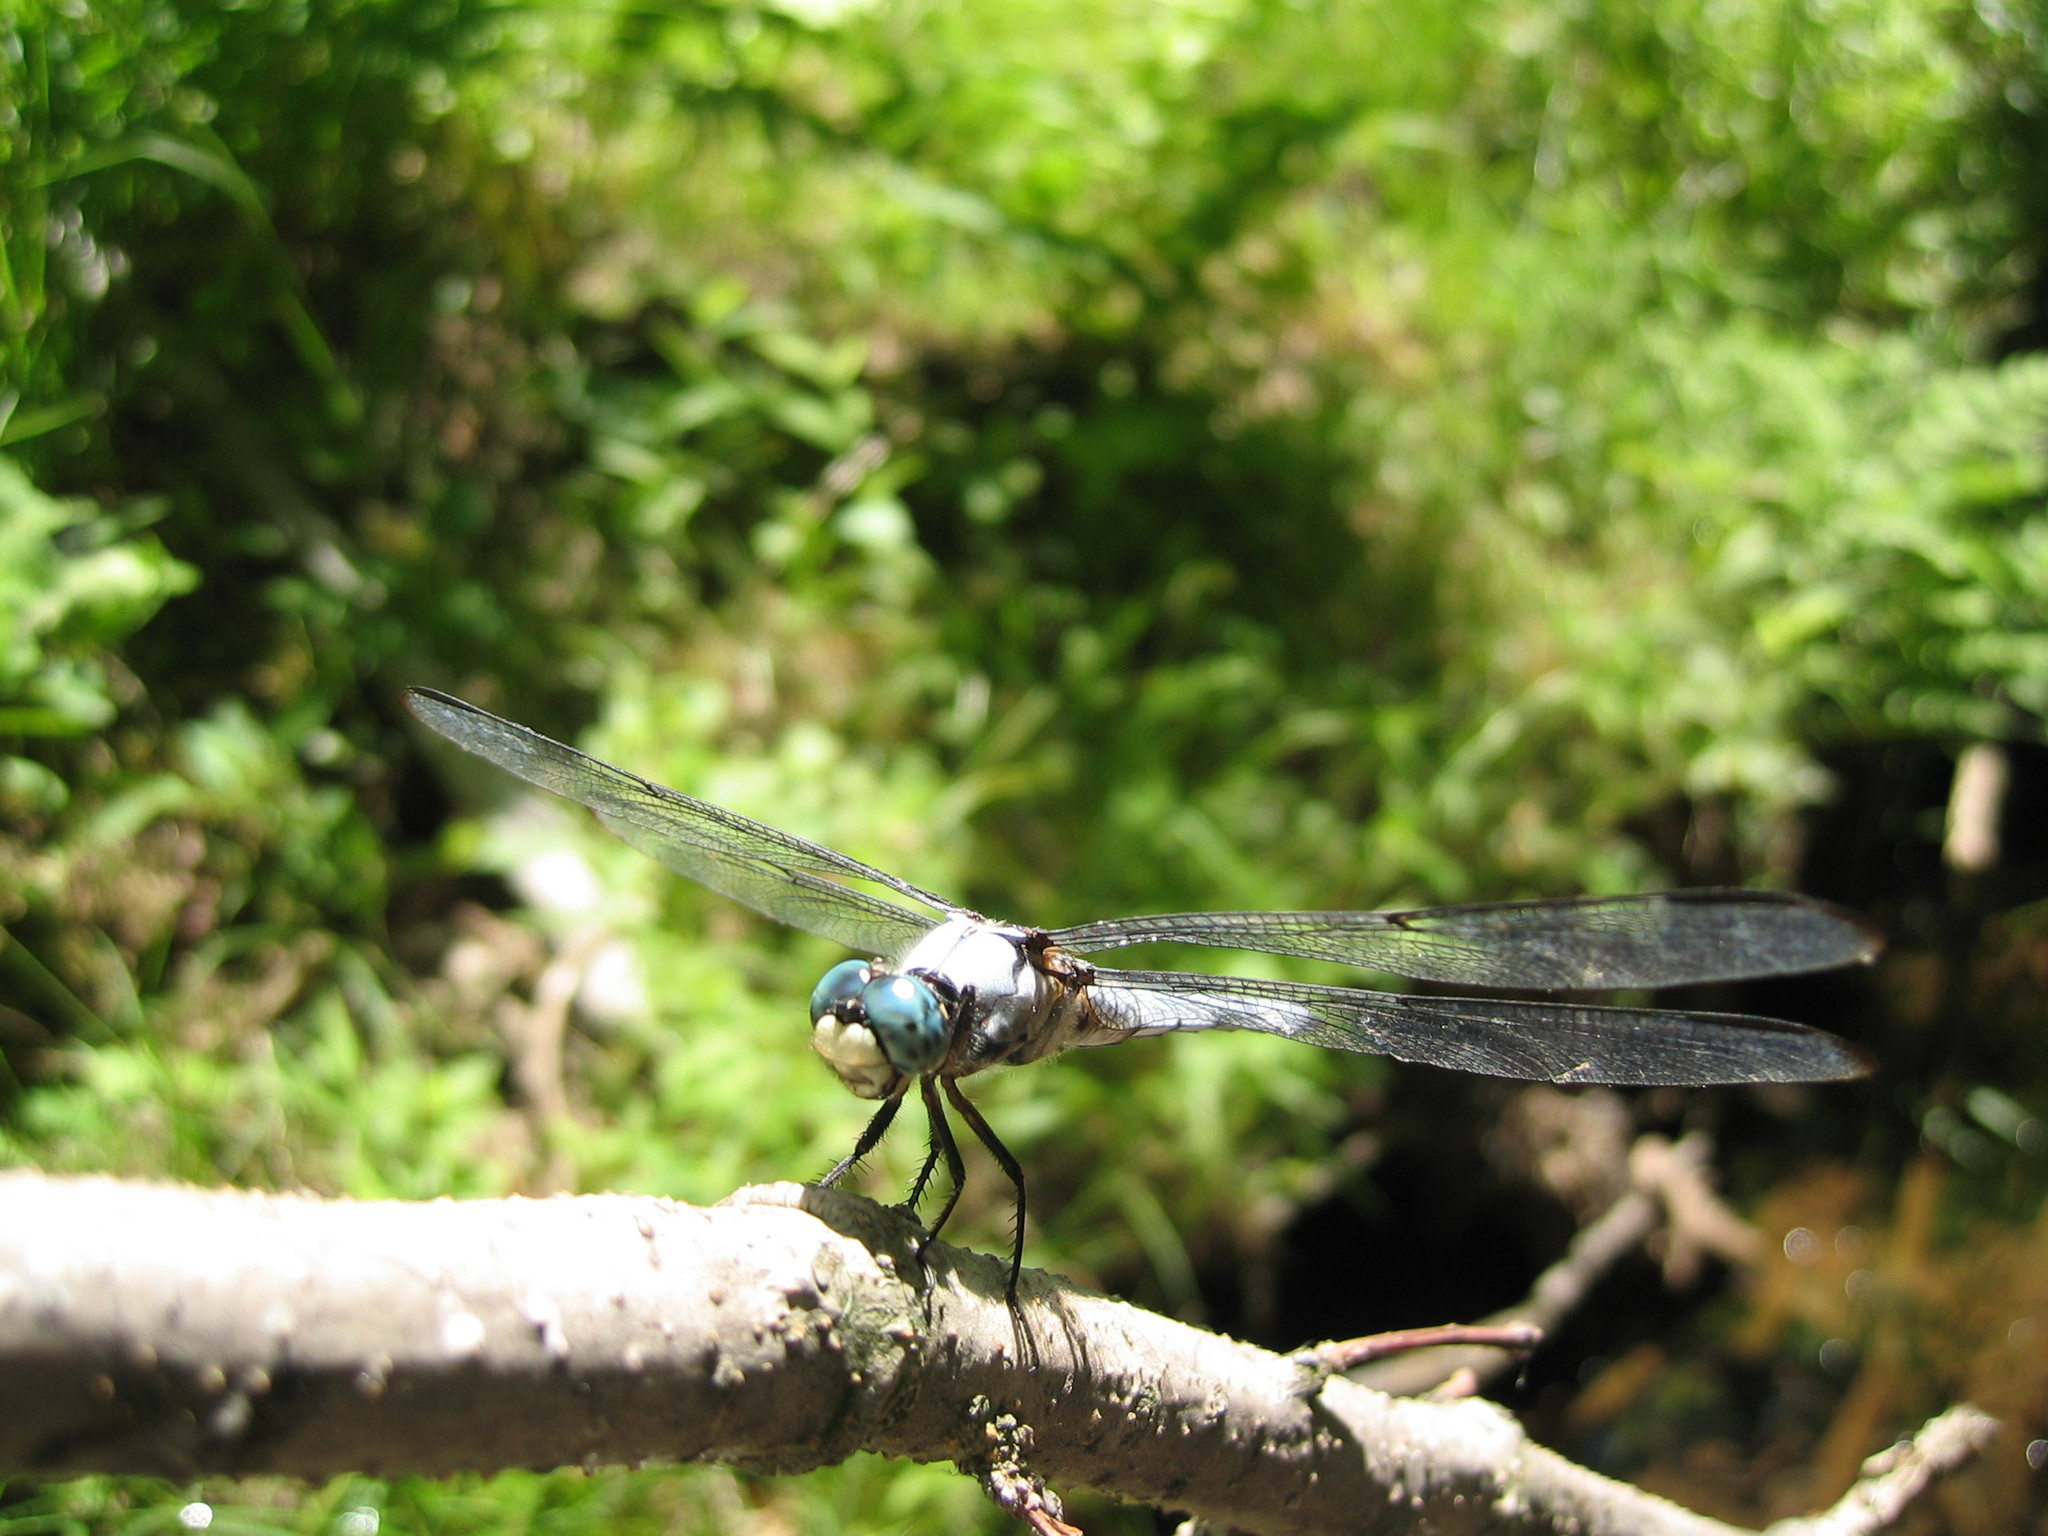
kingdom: Animalia
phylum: Arthropoda
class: Insecta
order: Odonata
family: Libellulidae
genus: Libellula
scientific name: Libellula vibrans
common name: Great blue skimmer
